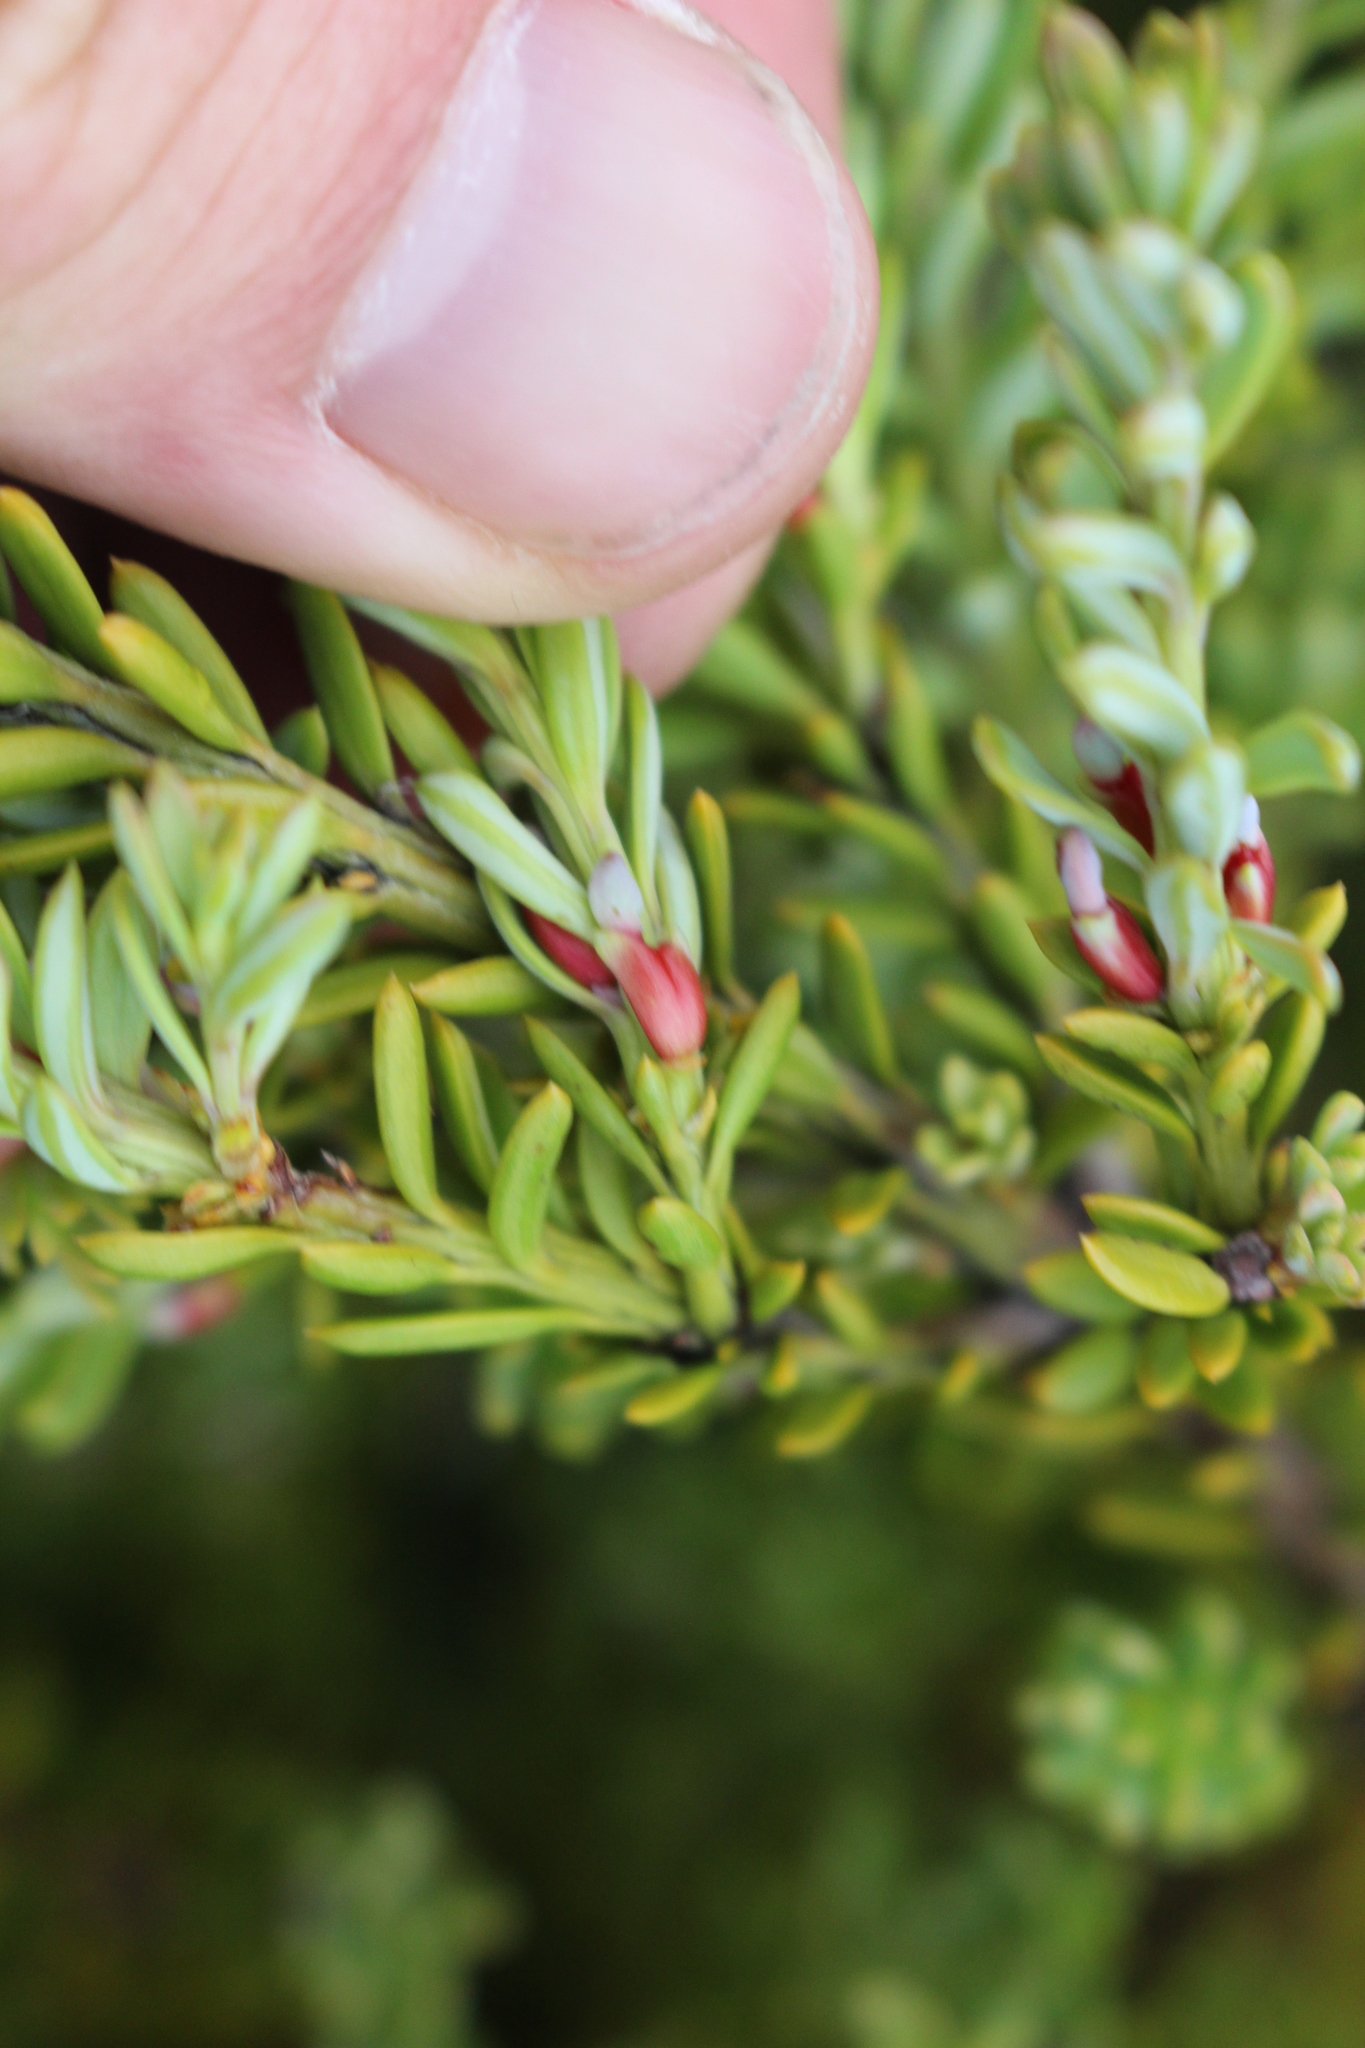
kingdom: Plantae
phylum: Tracheophyta
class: Pinopsida
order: Pinales
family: Podocarpaceae
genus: Podocarpus
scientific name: Podocarpus nivalis
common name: Alpine totara
